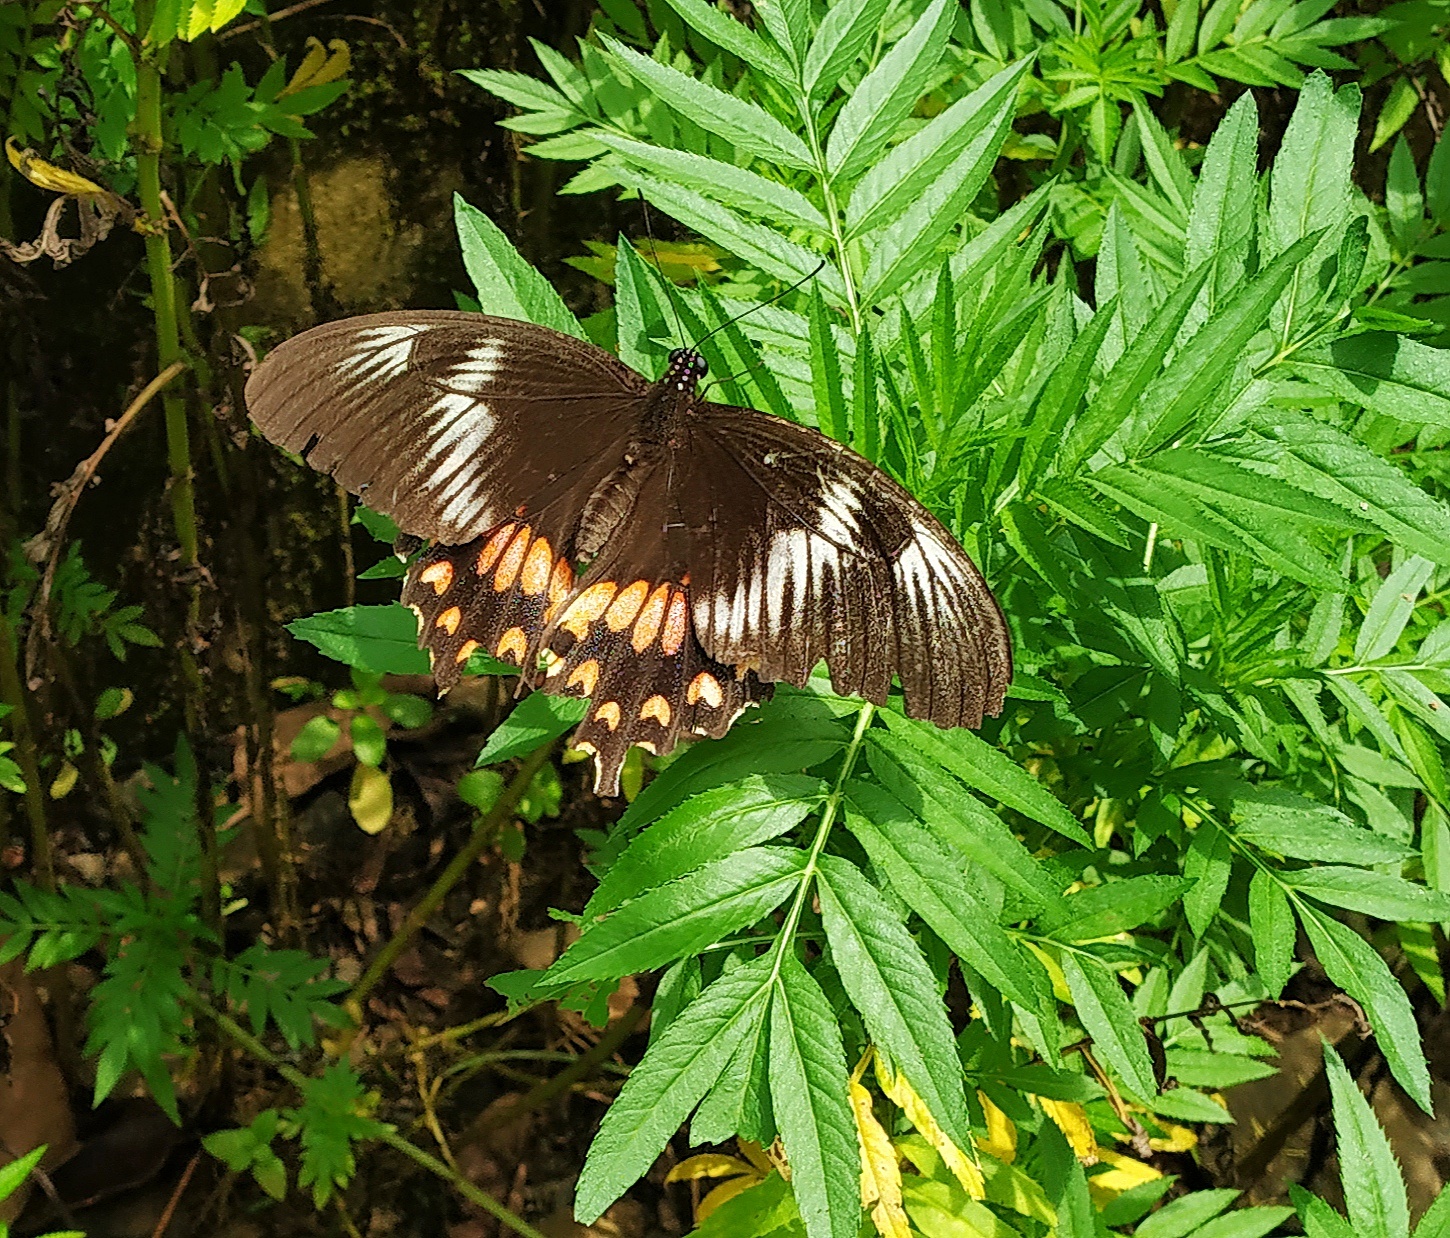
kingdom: Animalia
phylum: Arthropoda
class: Insecta
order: Lepidoptera
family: Papilionidae
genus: Papilio
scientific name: Papilio polytes
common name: Common mormon
